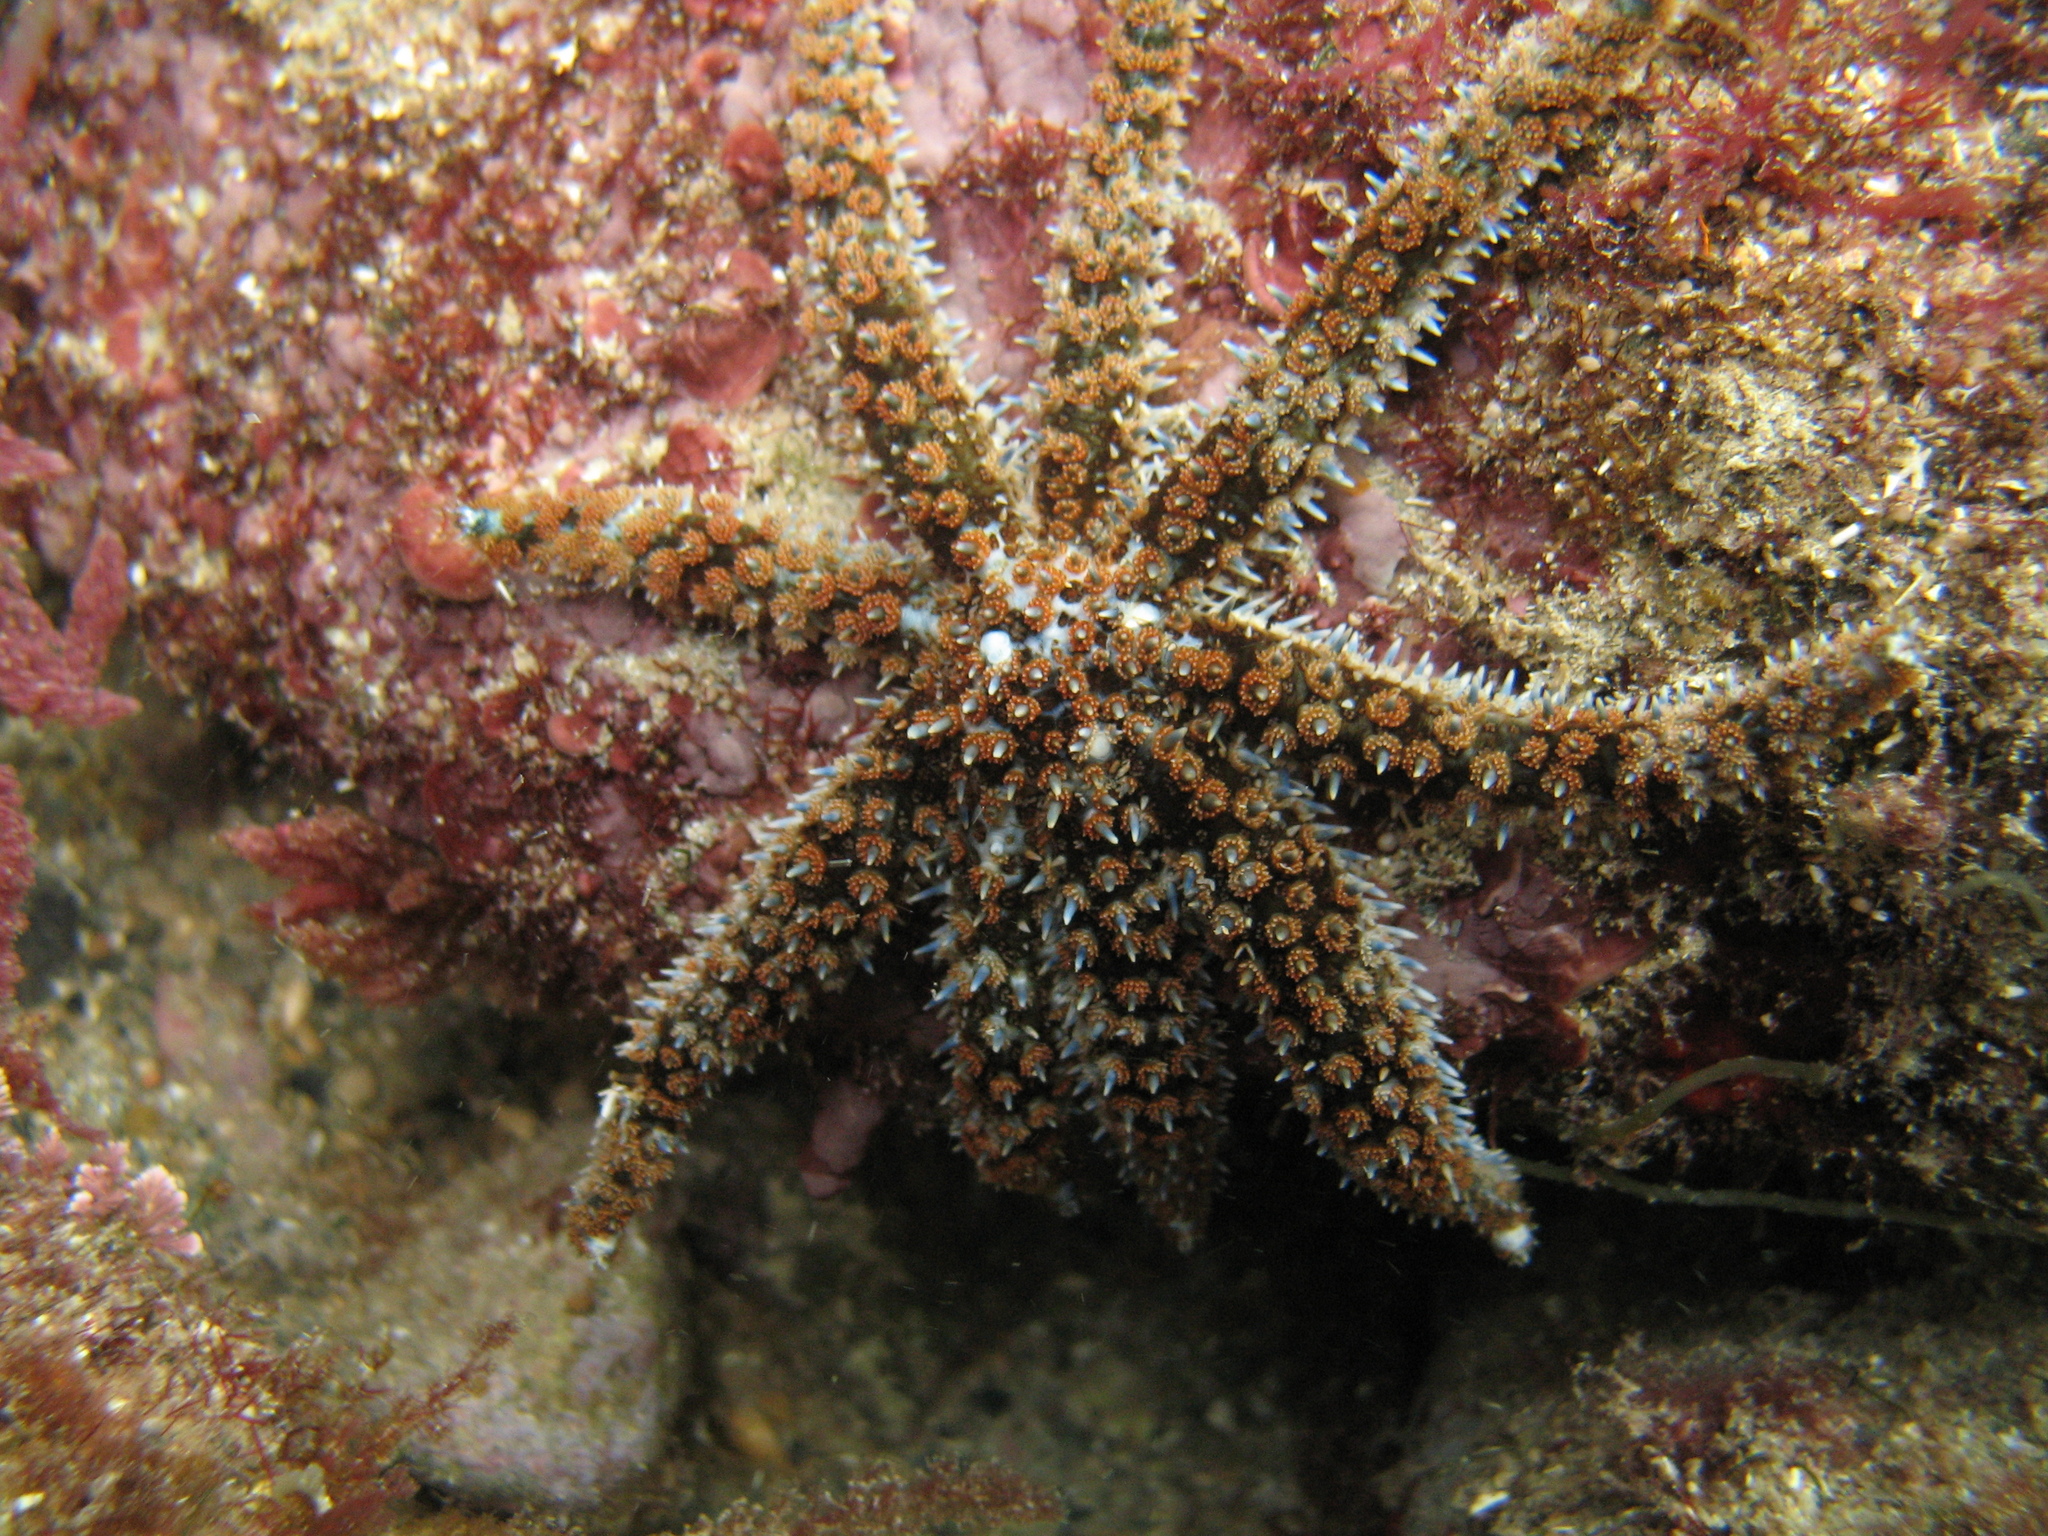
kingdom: Animalia
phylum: Echinodermata
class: Asteroidea
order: Forcipulatida
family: Asteriidae
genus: Coscinasterias
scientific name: Coscinasterias tenuispina
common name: Blue spiny starfish
